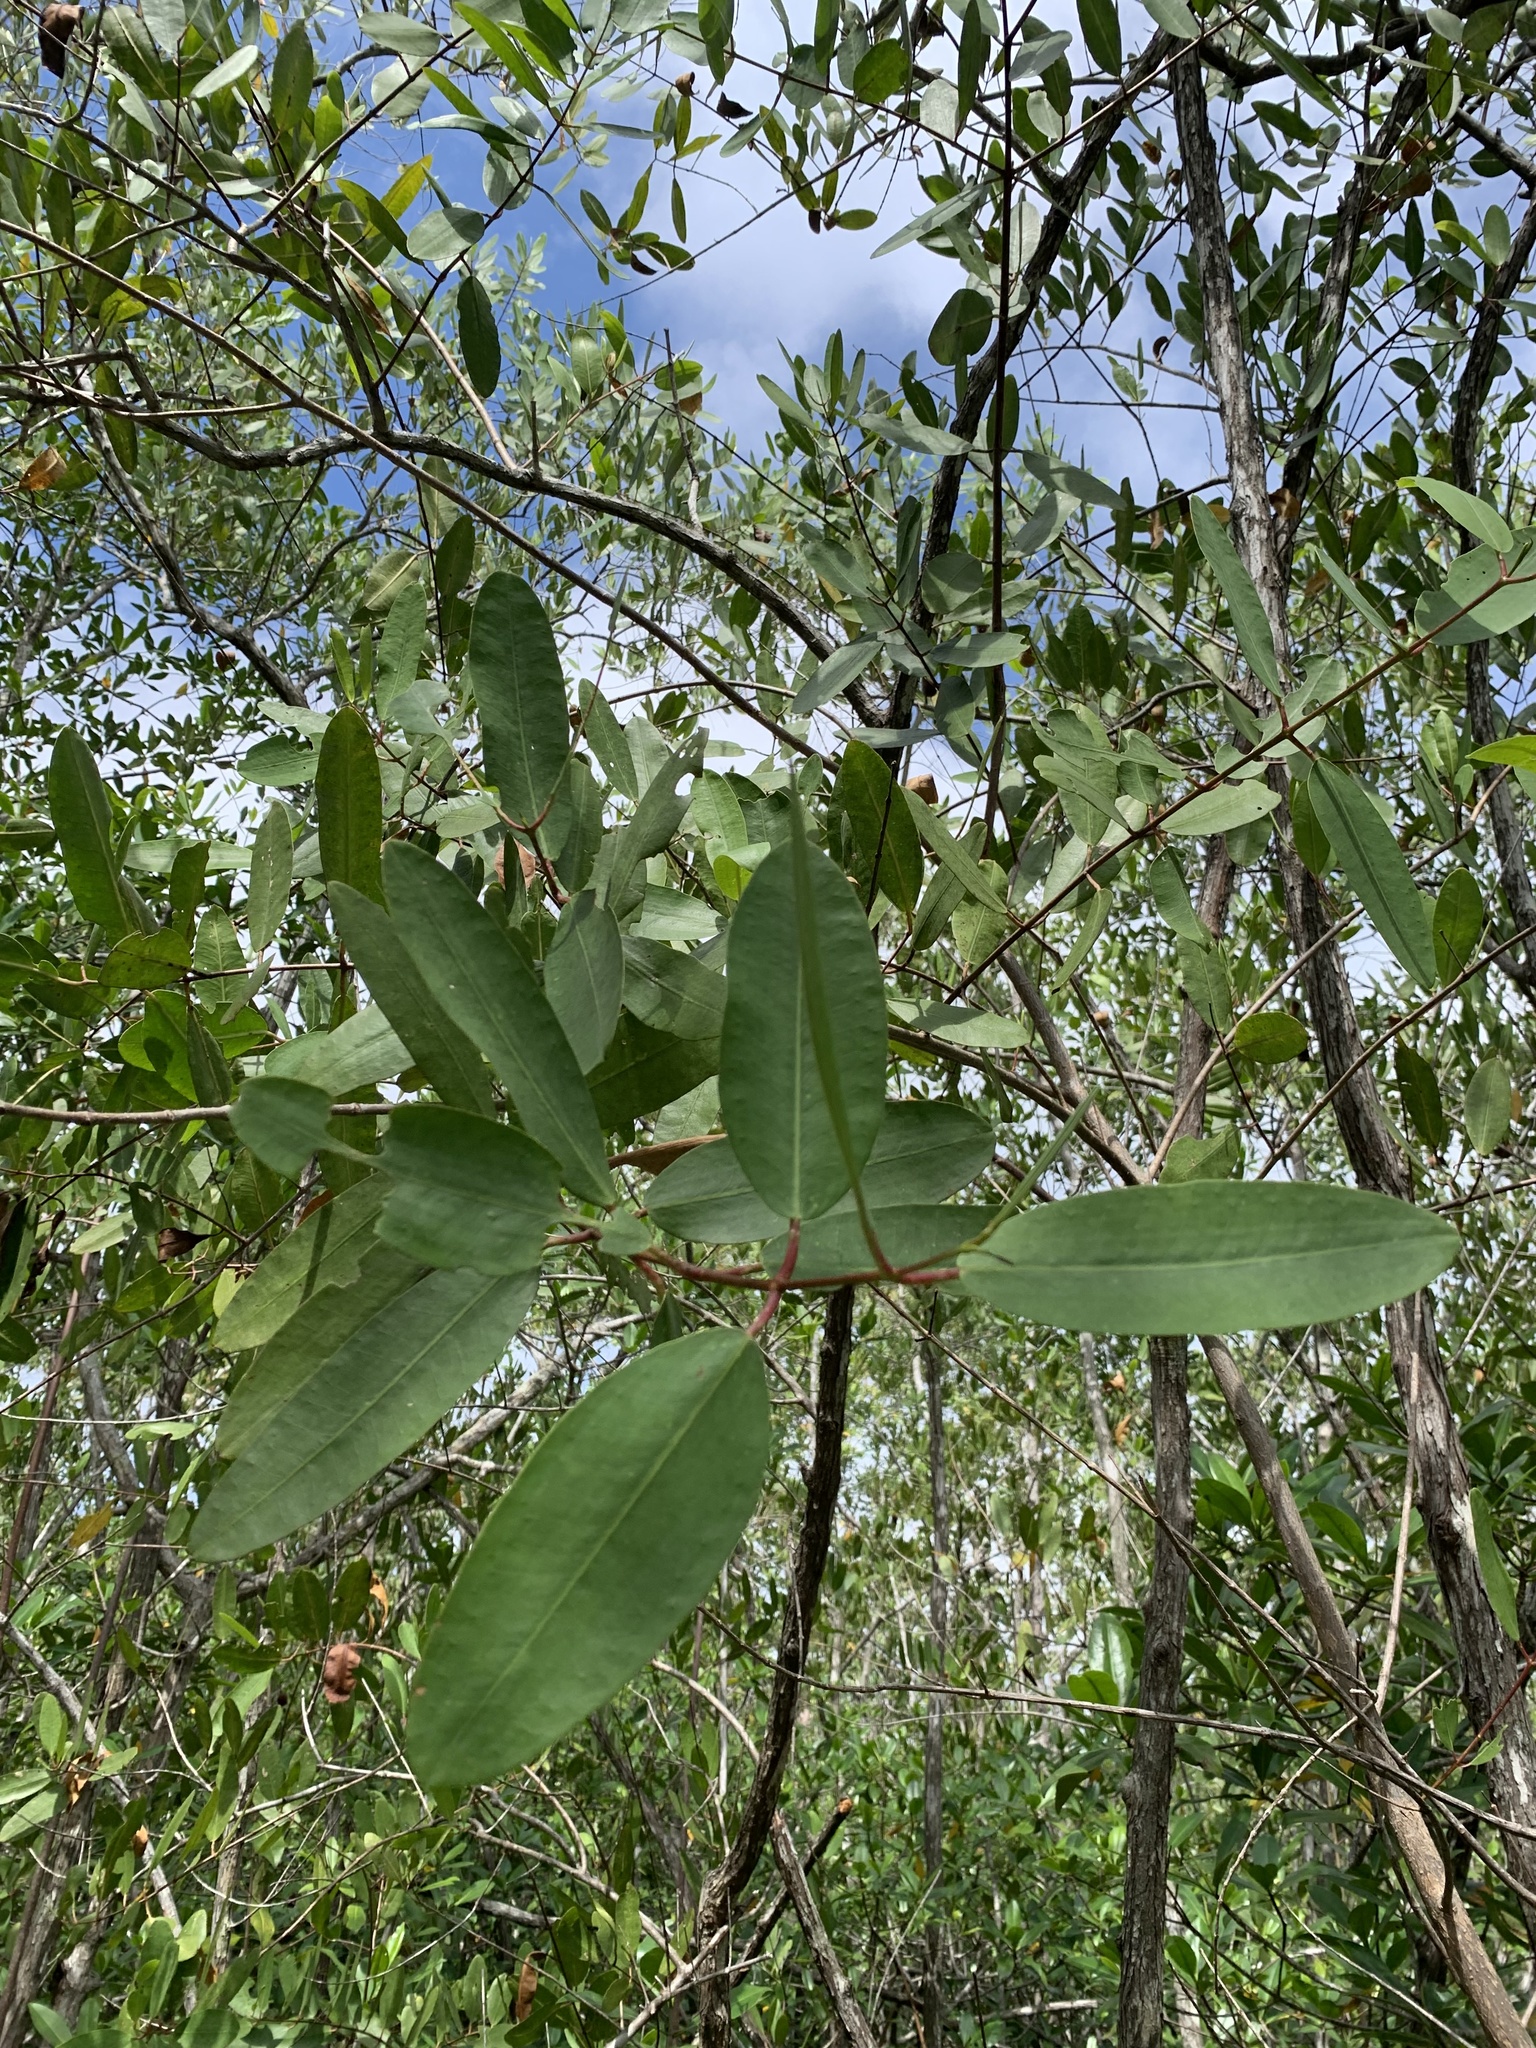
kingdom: Plantae
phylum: Tracheophyta
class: Magnoliopsida
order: Myrtales
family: Combretaceae
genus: Laguncularia
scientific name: Laguncularia racemosa
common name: White mangrove
